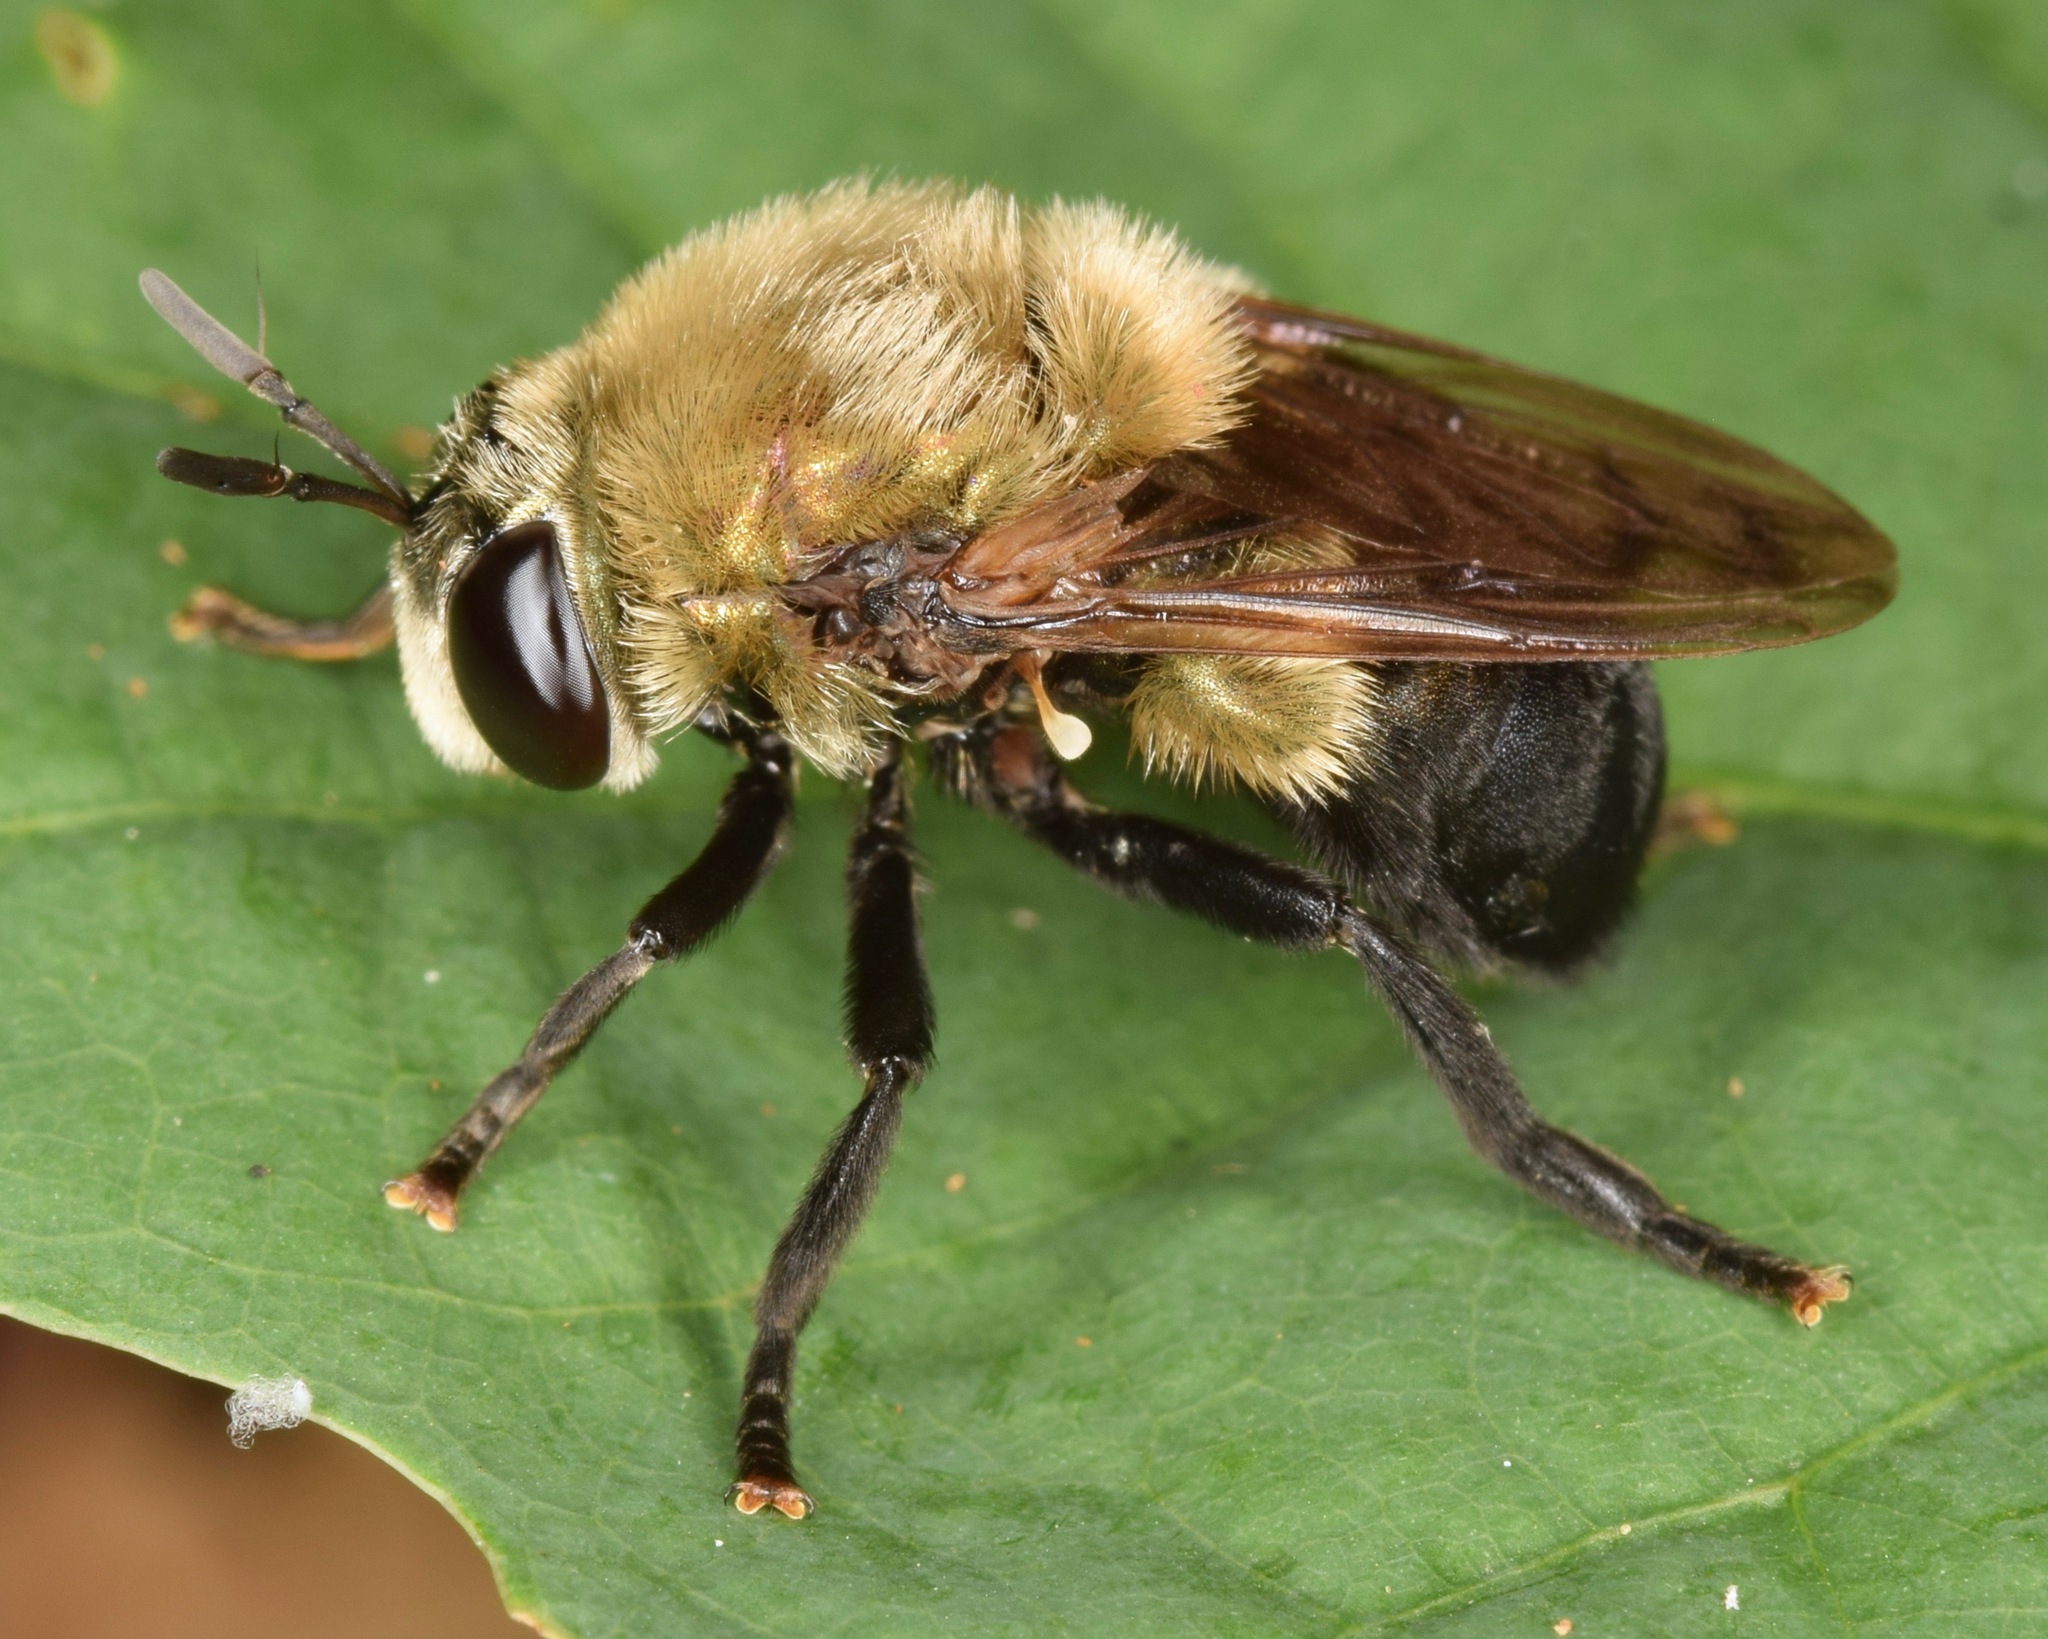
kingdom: Animalia
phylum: Arthropoda
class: Insecta
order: Diptera
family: Syrphidae
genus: Microdon
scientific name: Microdon megalogaster
